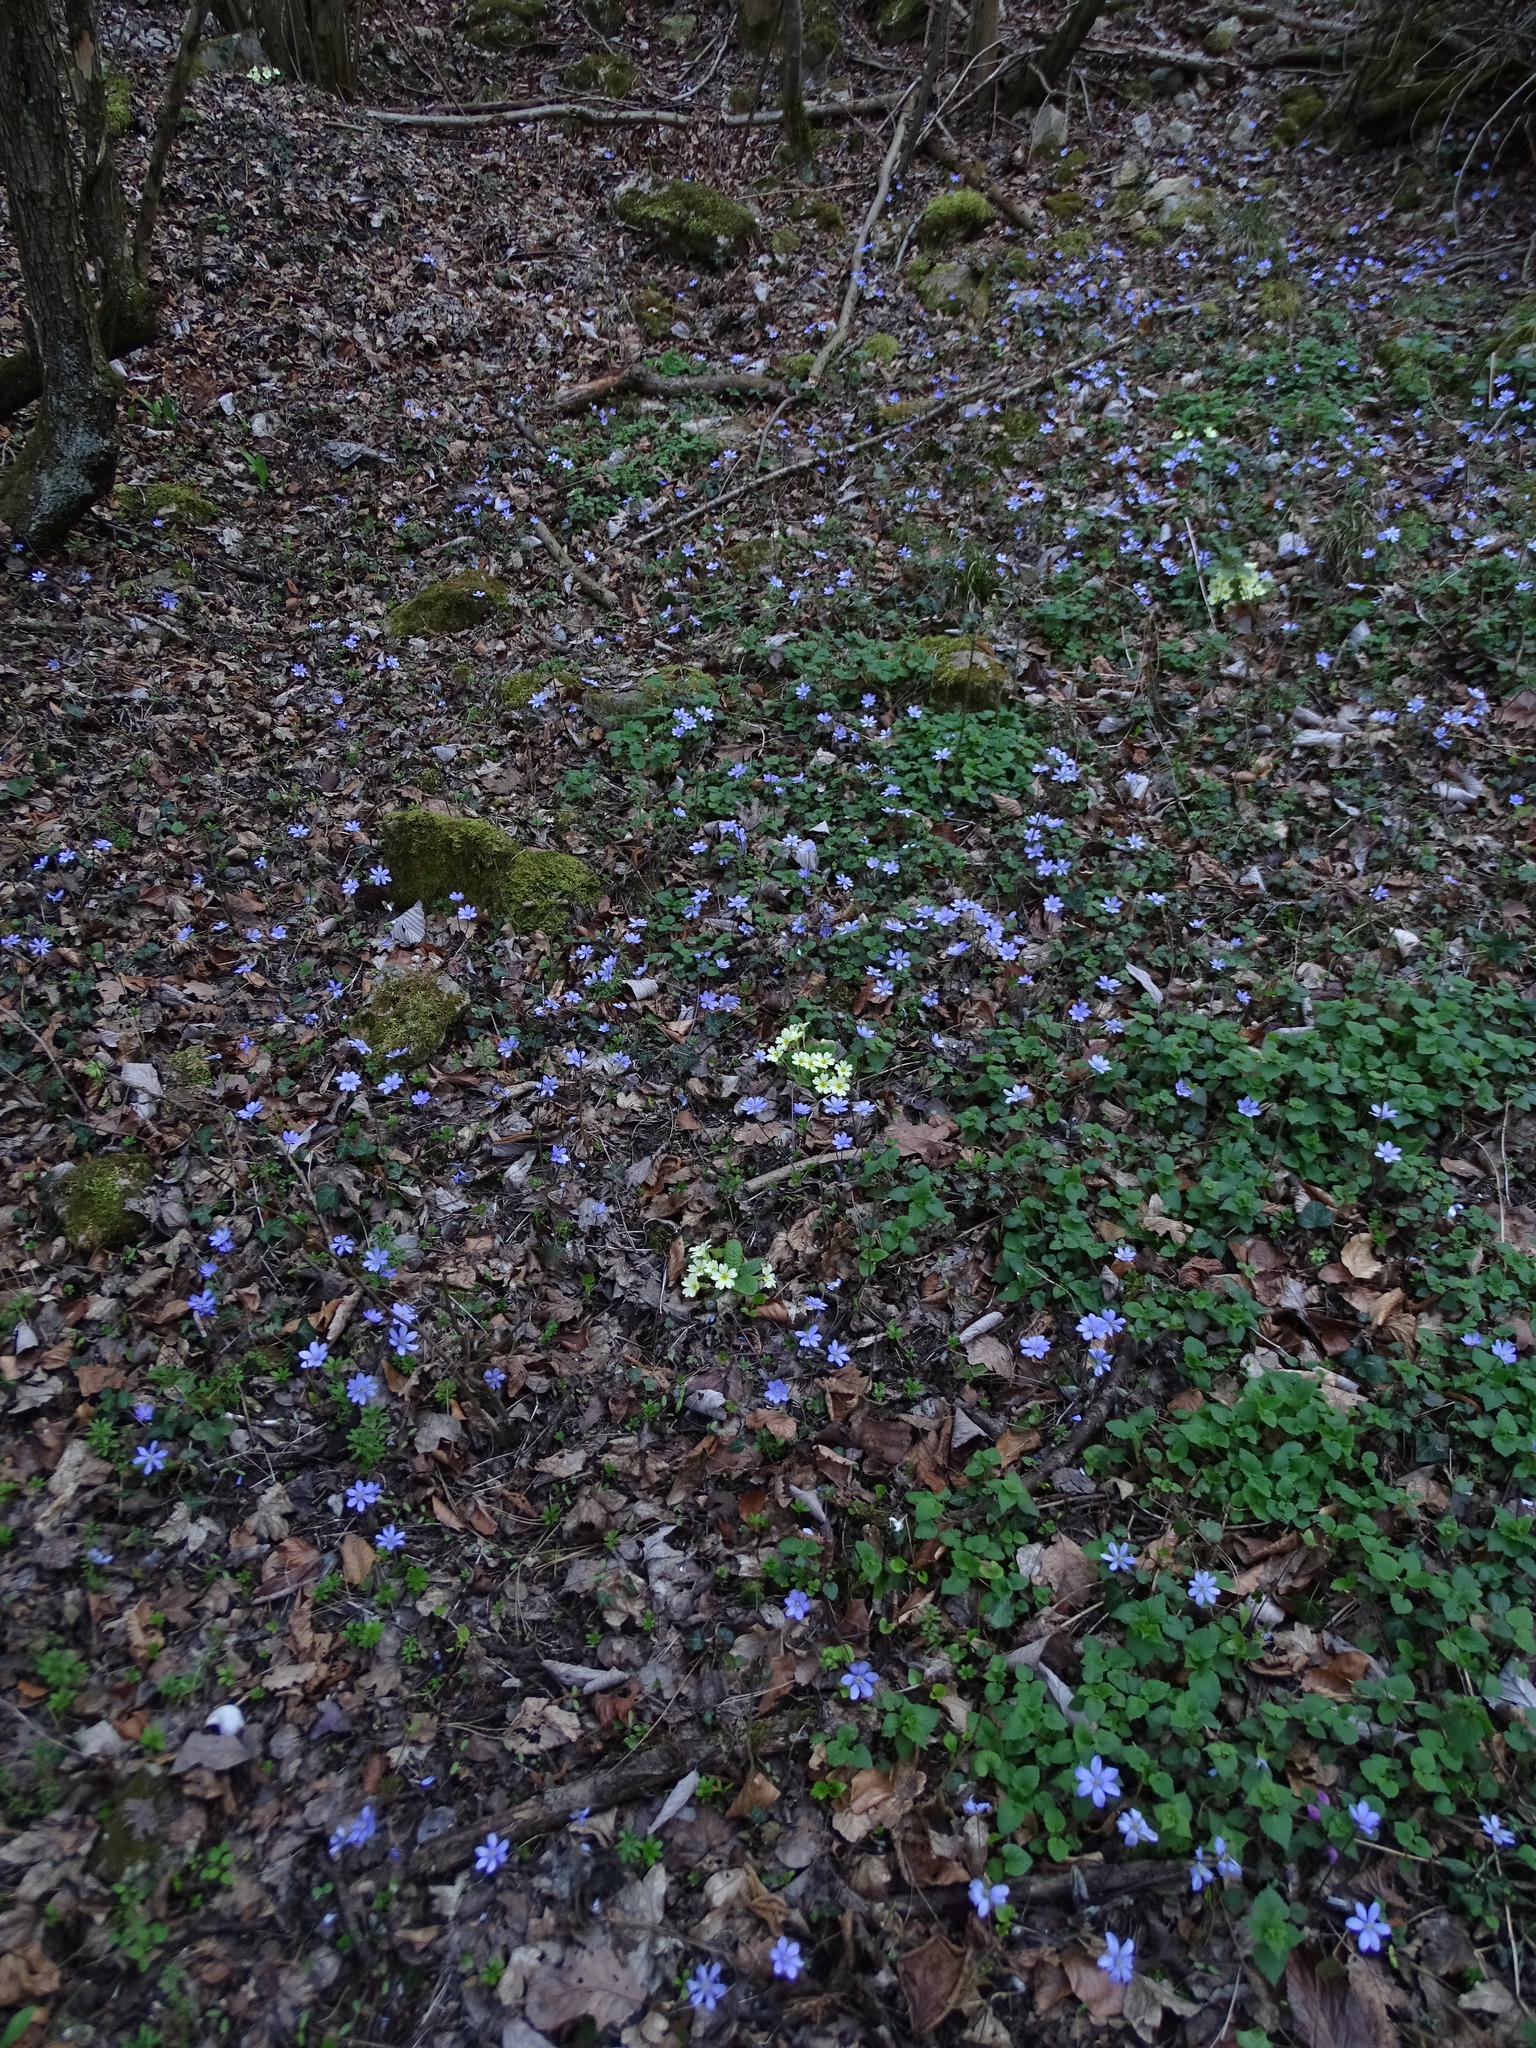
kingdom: Plantae
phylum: Tracheophyta
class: Magnoliopsida
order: Ranunculales
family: Ranunculaceae
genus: Hepatica
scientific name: Hepatica nobilis
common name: Liverleaf
